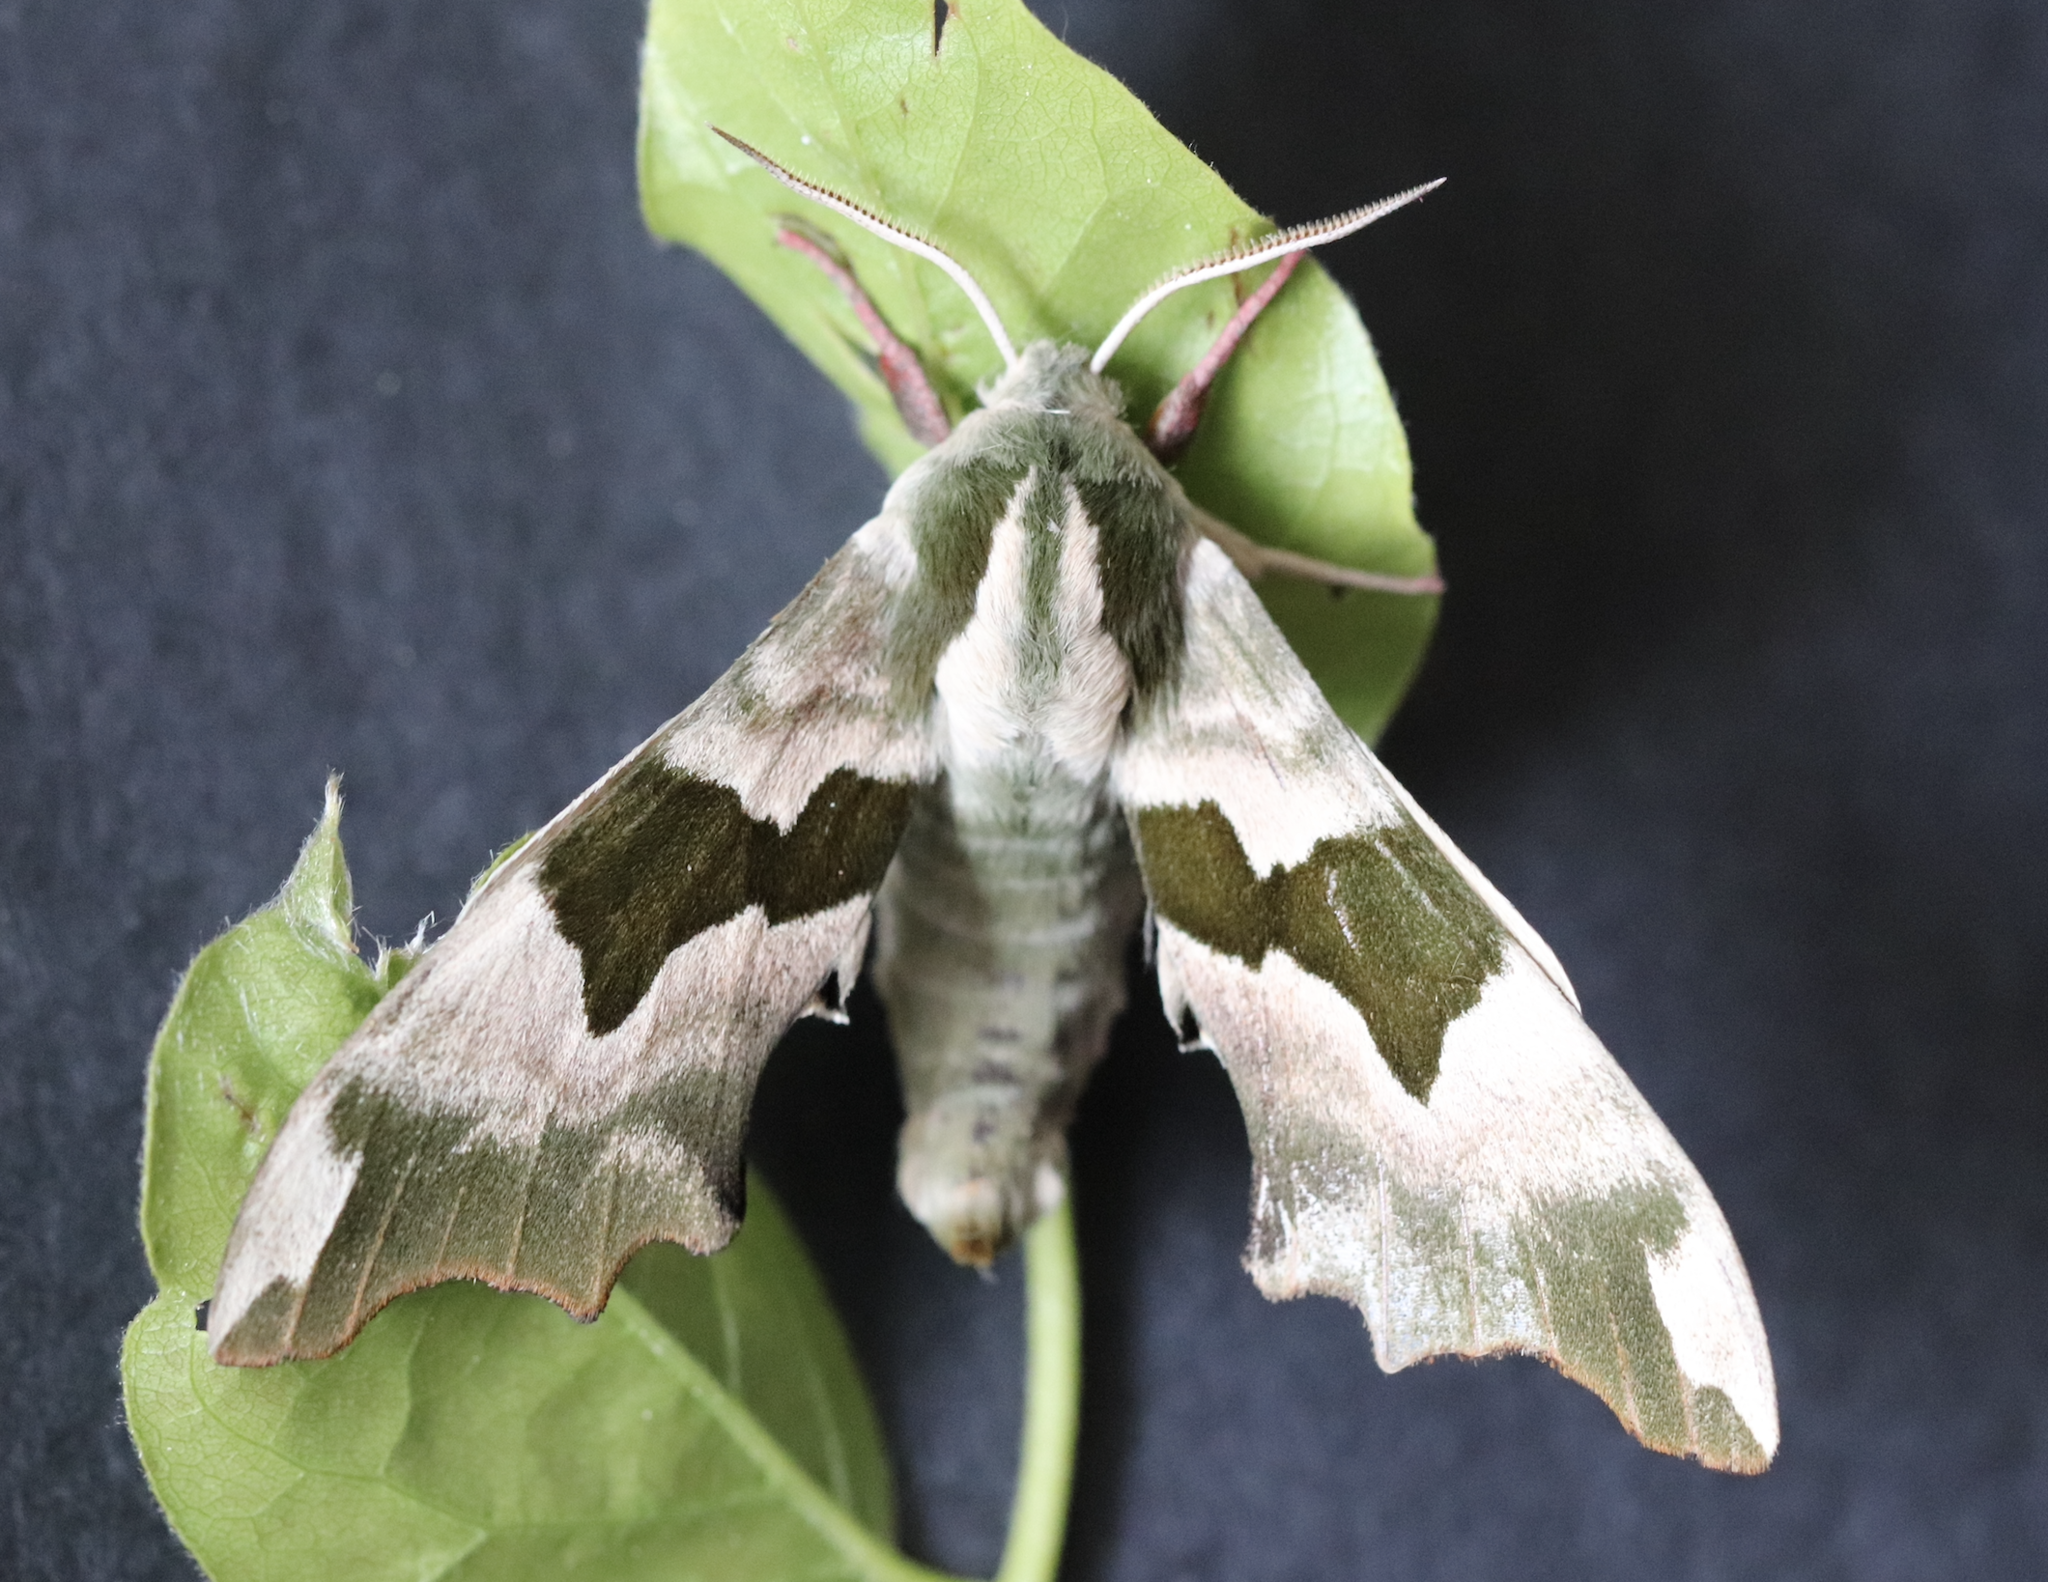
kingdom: Animalia
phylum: Arthropoda
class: Insecta
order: Lepidoptera
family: Sphingidae
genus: Mimas
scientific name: Mimas tiliae
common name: Lime hawk-moth
